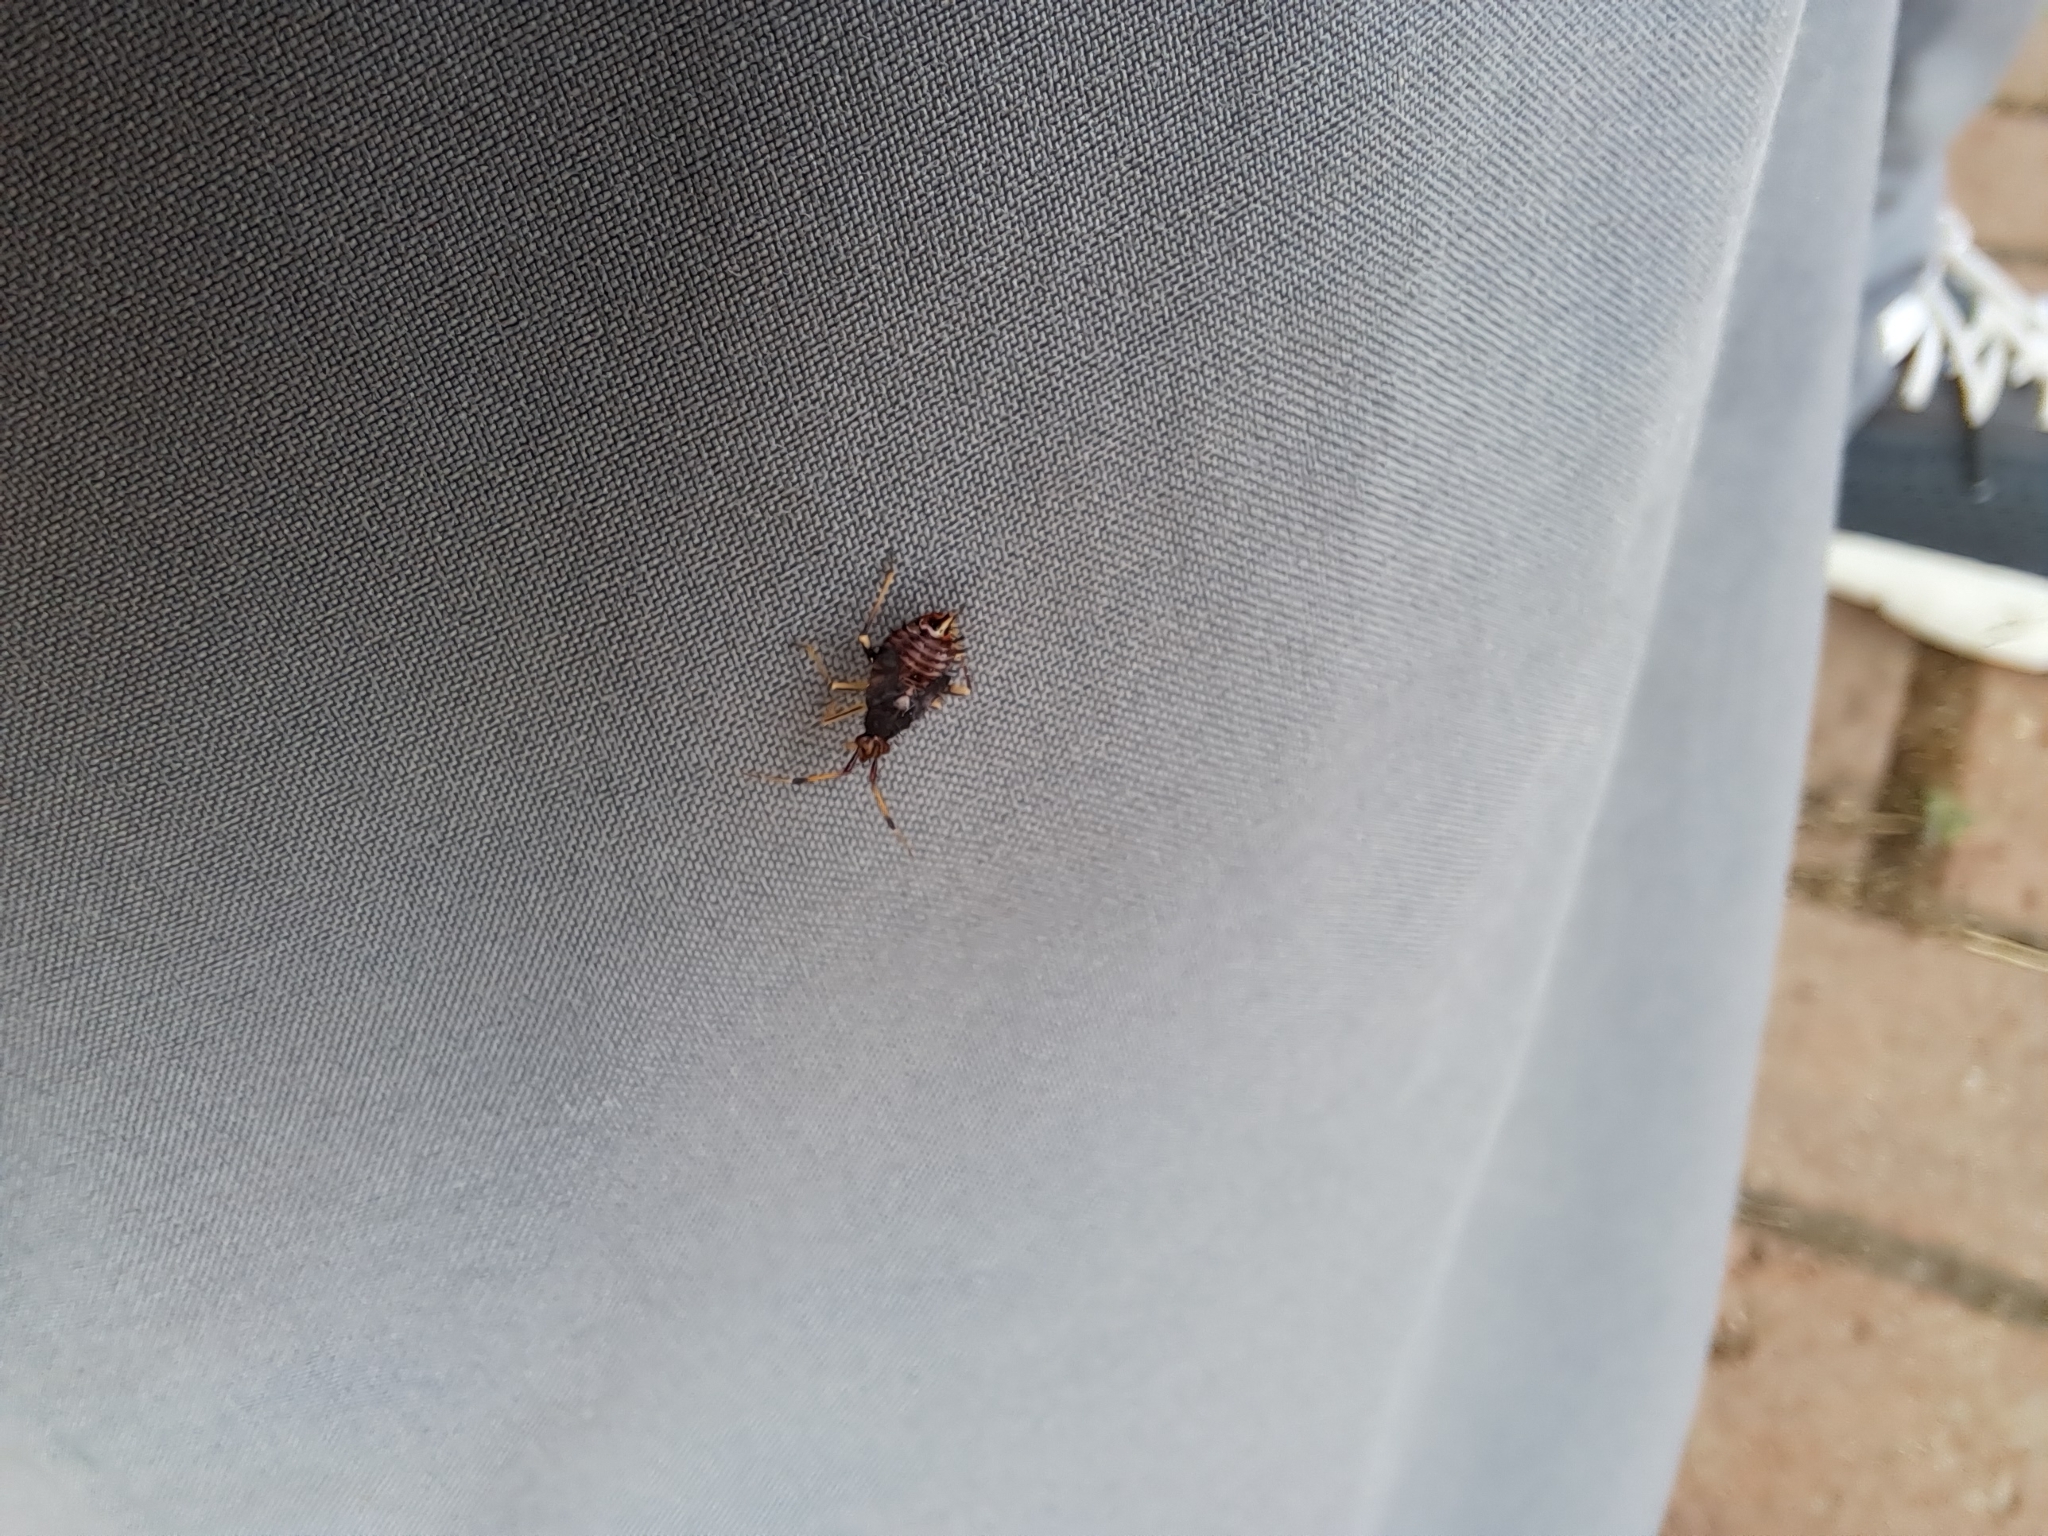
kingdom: Animalia
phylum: Arthropoda
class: Insecta
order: Hemiptera
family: Miridae
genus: Deraeocoris
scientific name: Deraeocoris ruber
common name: Plant bug
